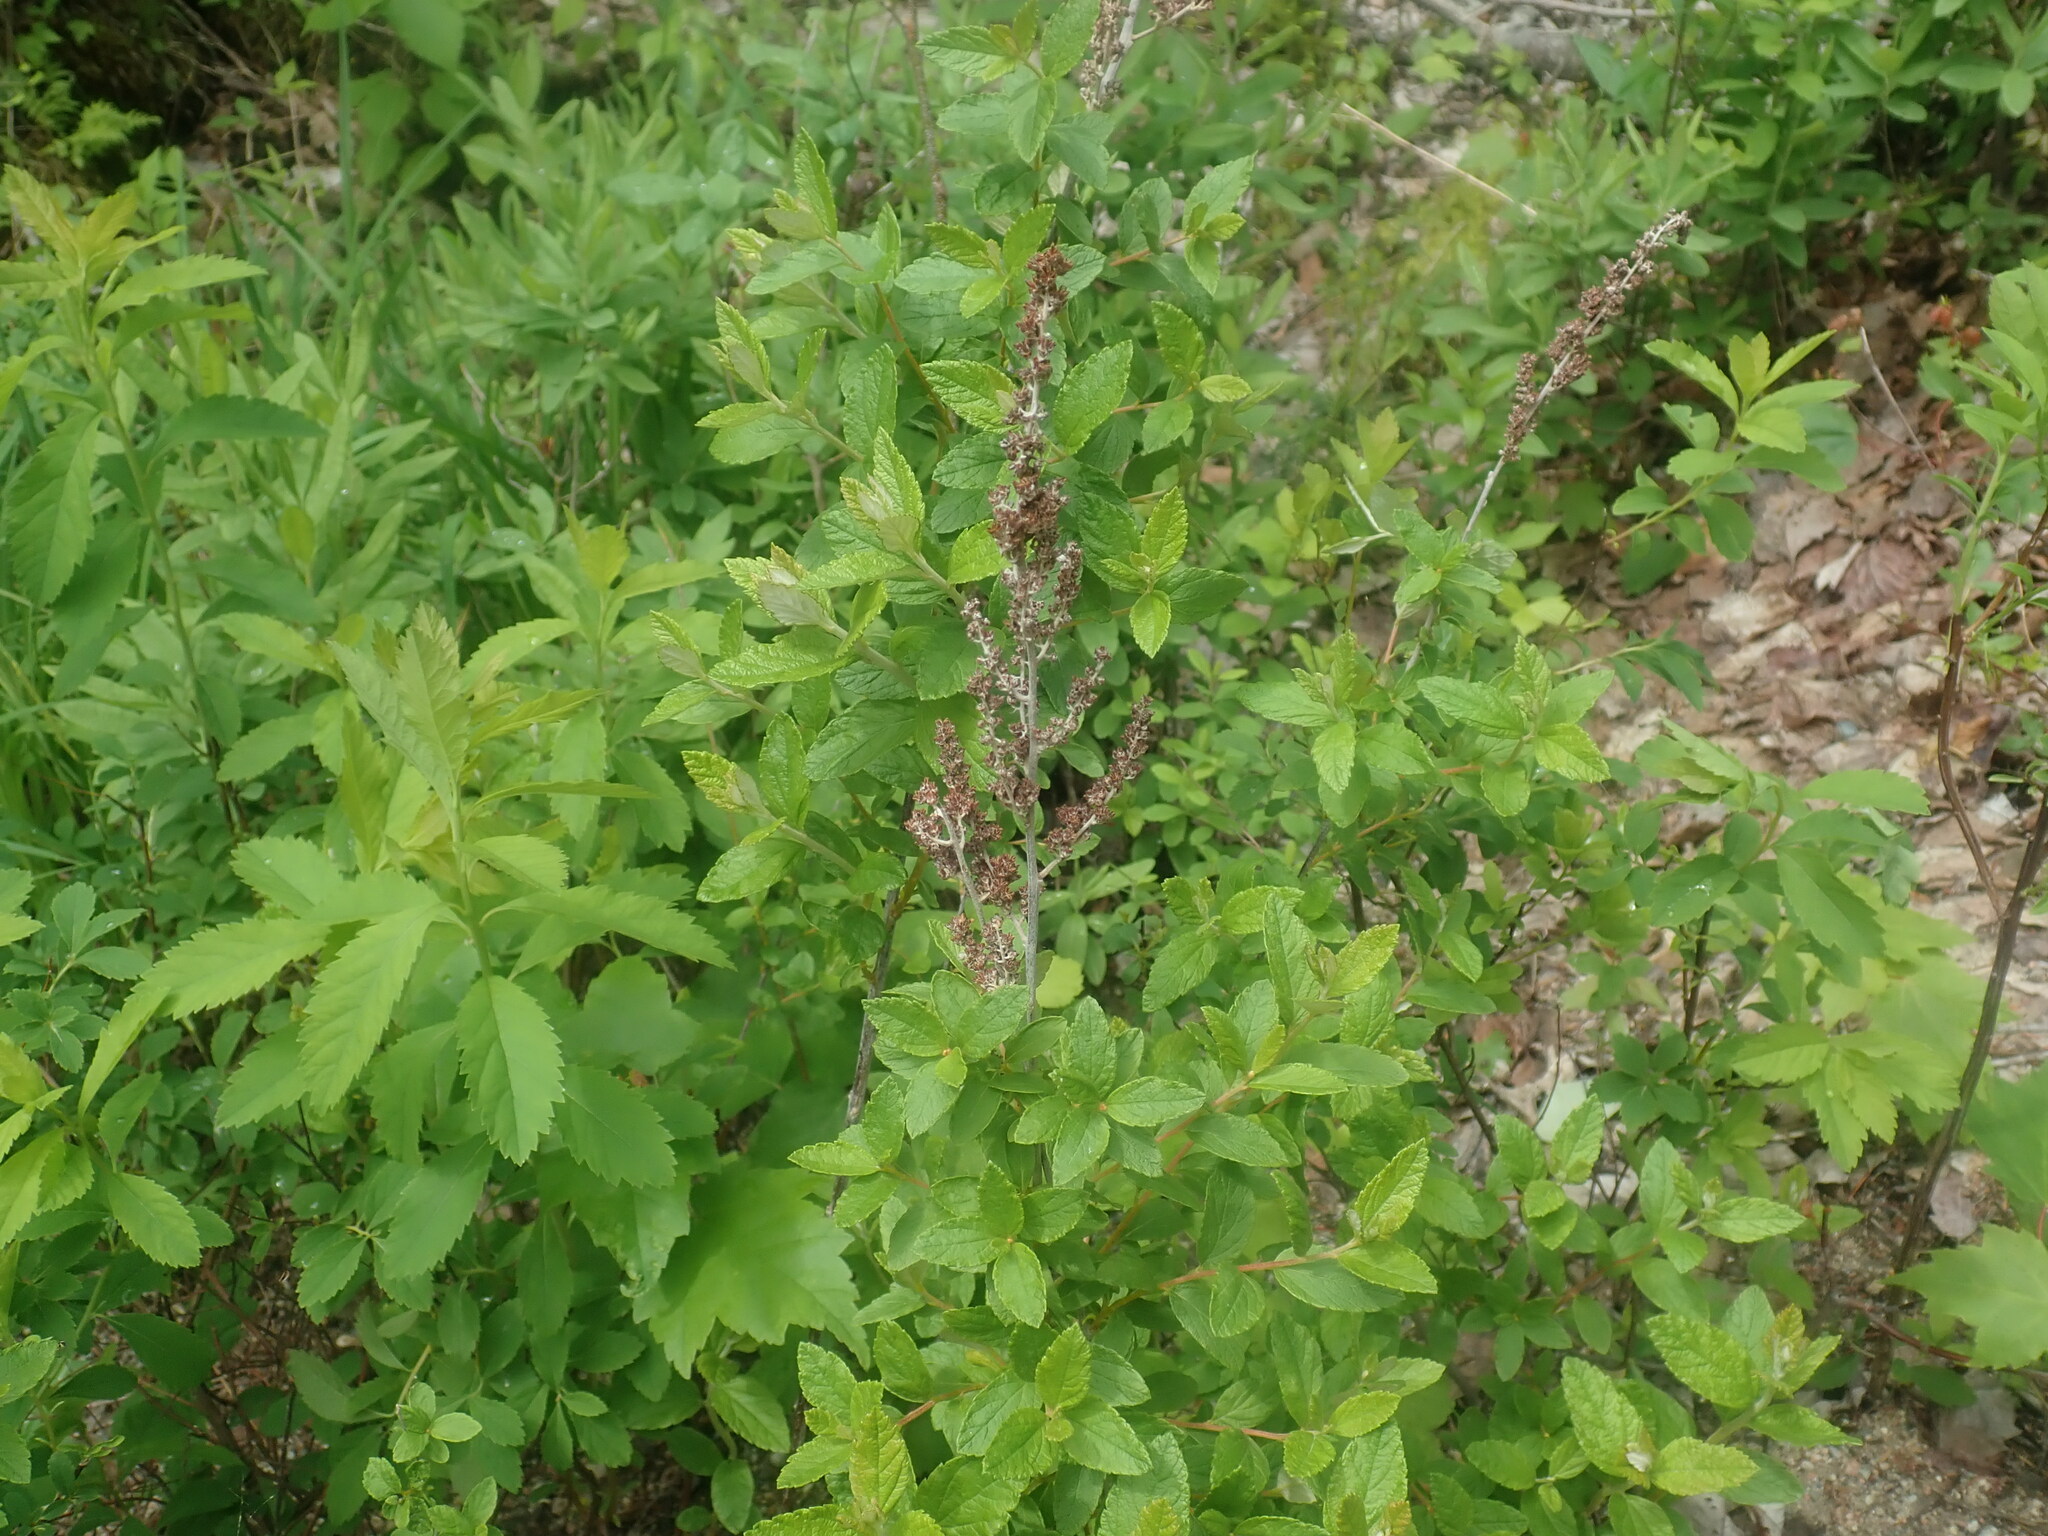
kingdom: Plantae
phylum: Tracheophyta
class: Magnoliopsida
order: Rosales
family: Rosaceae
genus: Spiraea
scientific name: Spiraea tomentosa
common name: Hardhack
